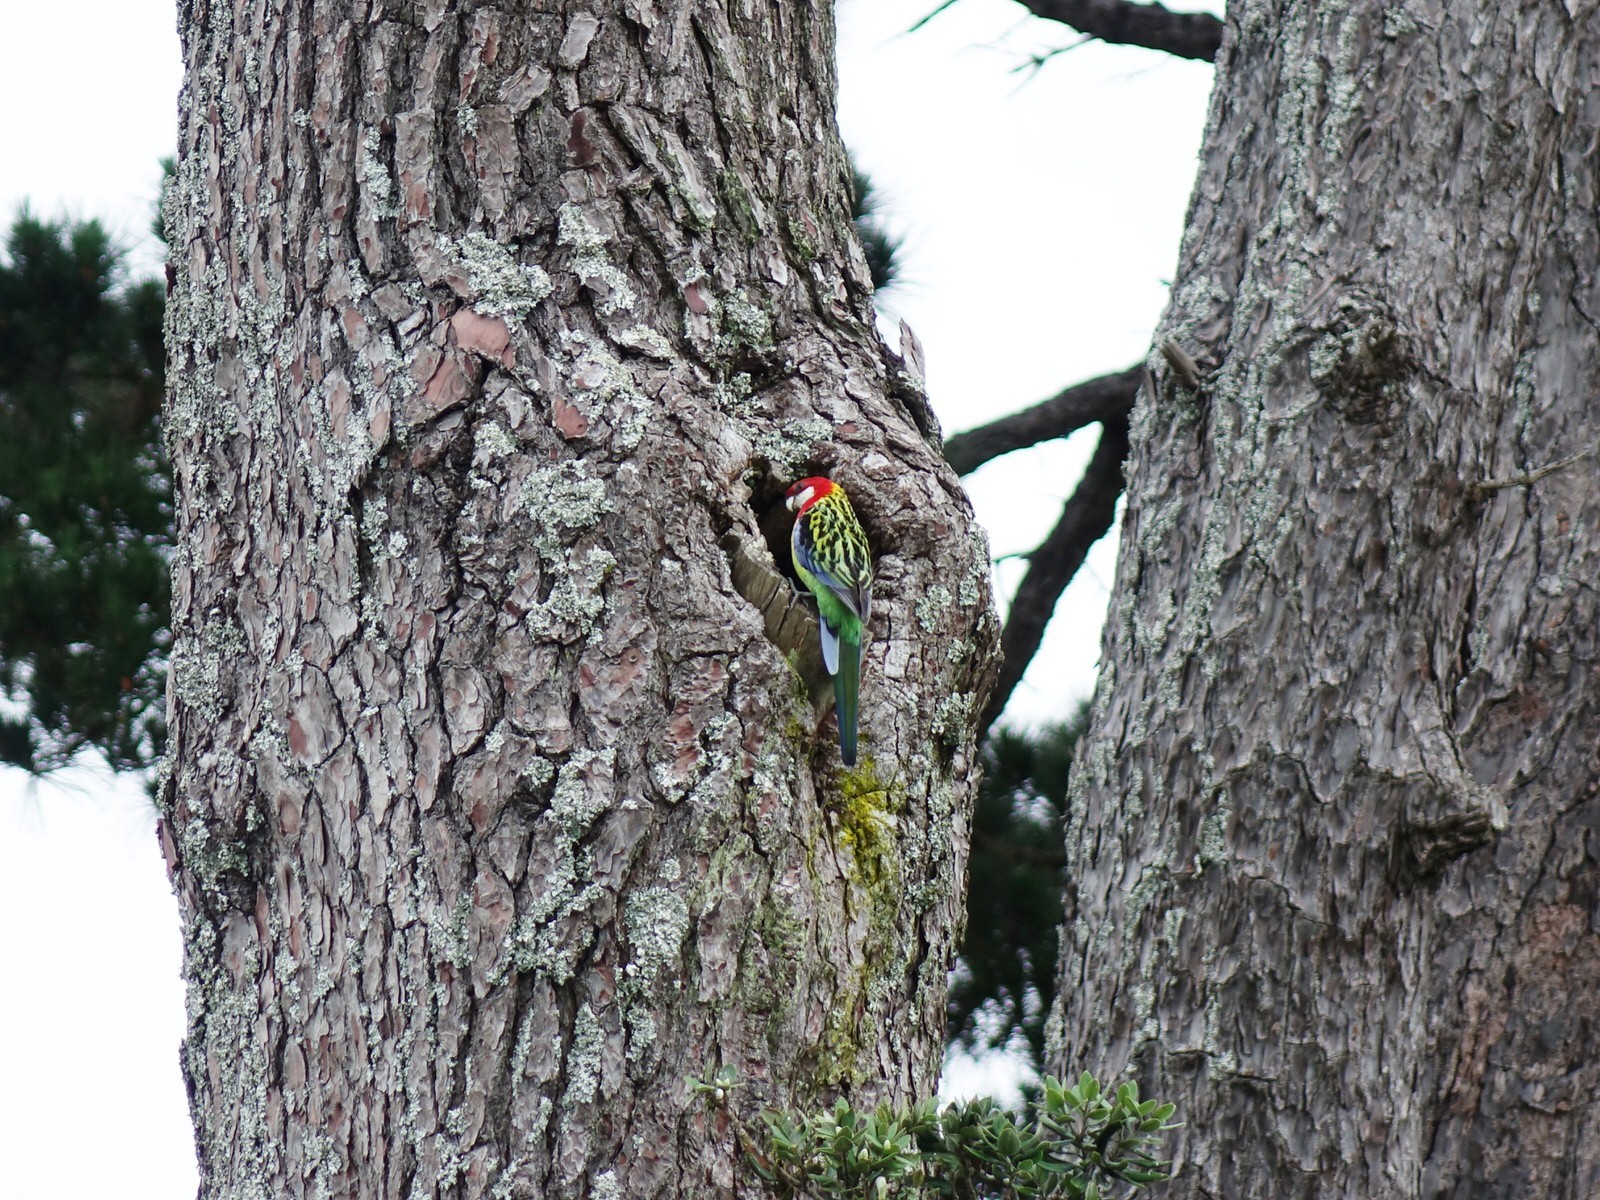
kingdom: Animalia
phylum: Chordata
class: Aves
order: Psittaciformes
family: Psittacidae
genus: Platycercus
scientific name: Platycercus eximius
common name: Eastern rosella
